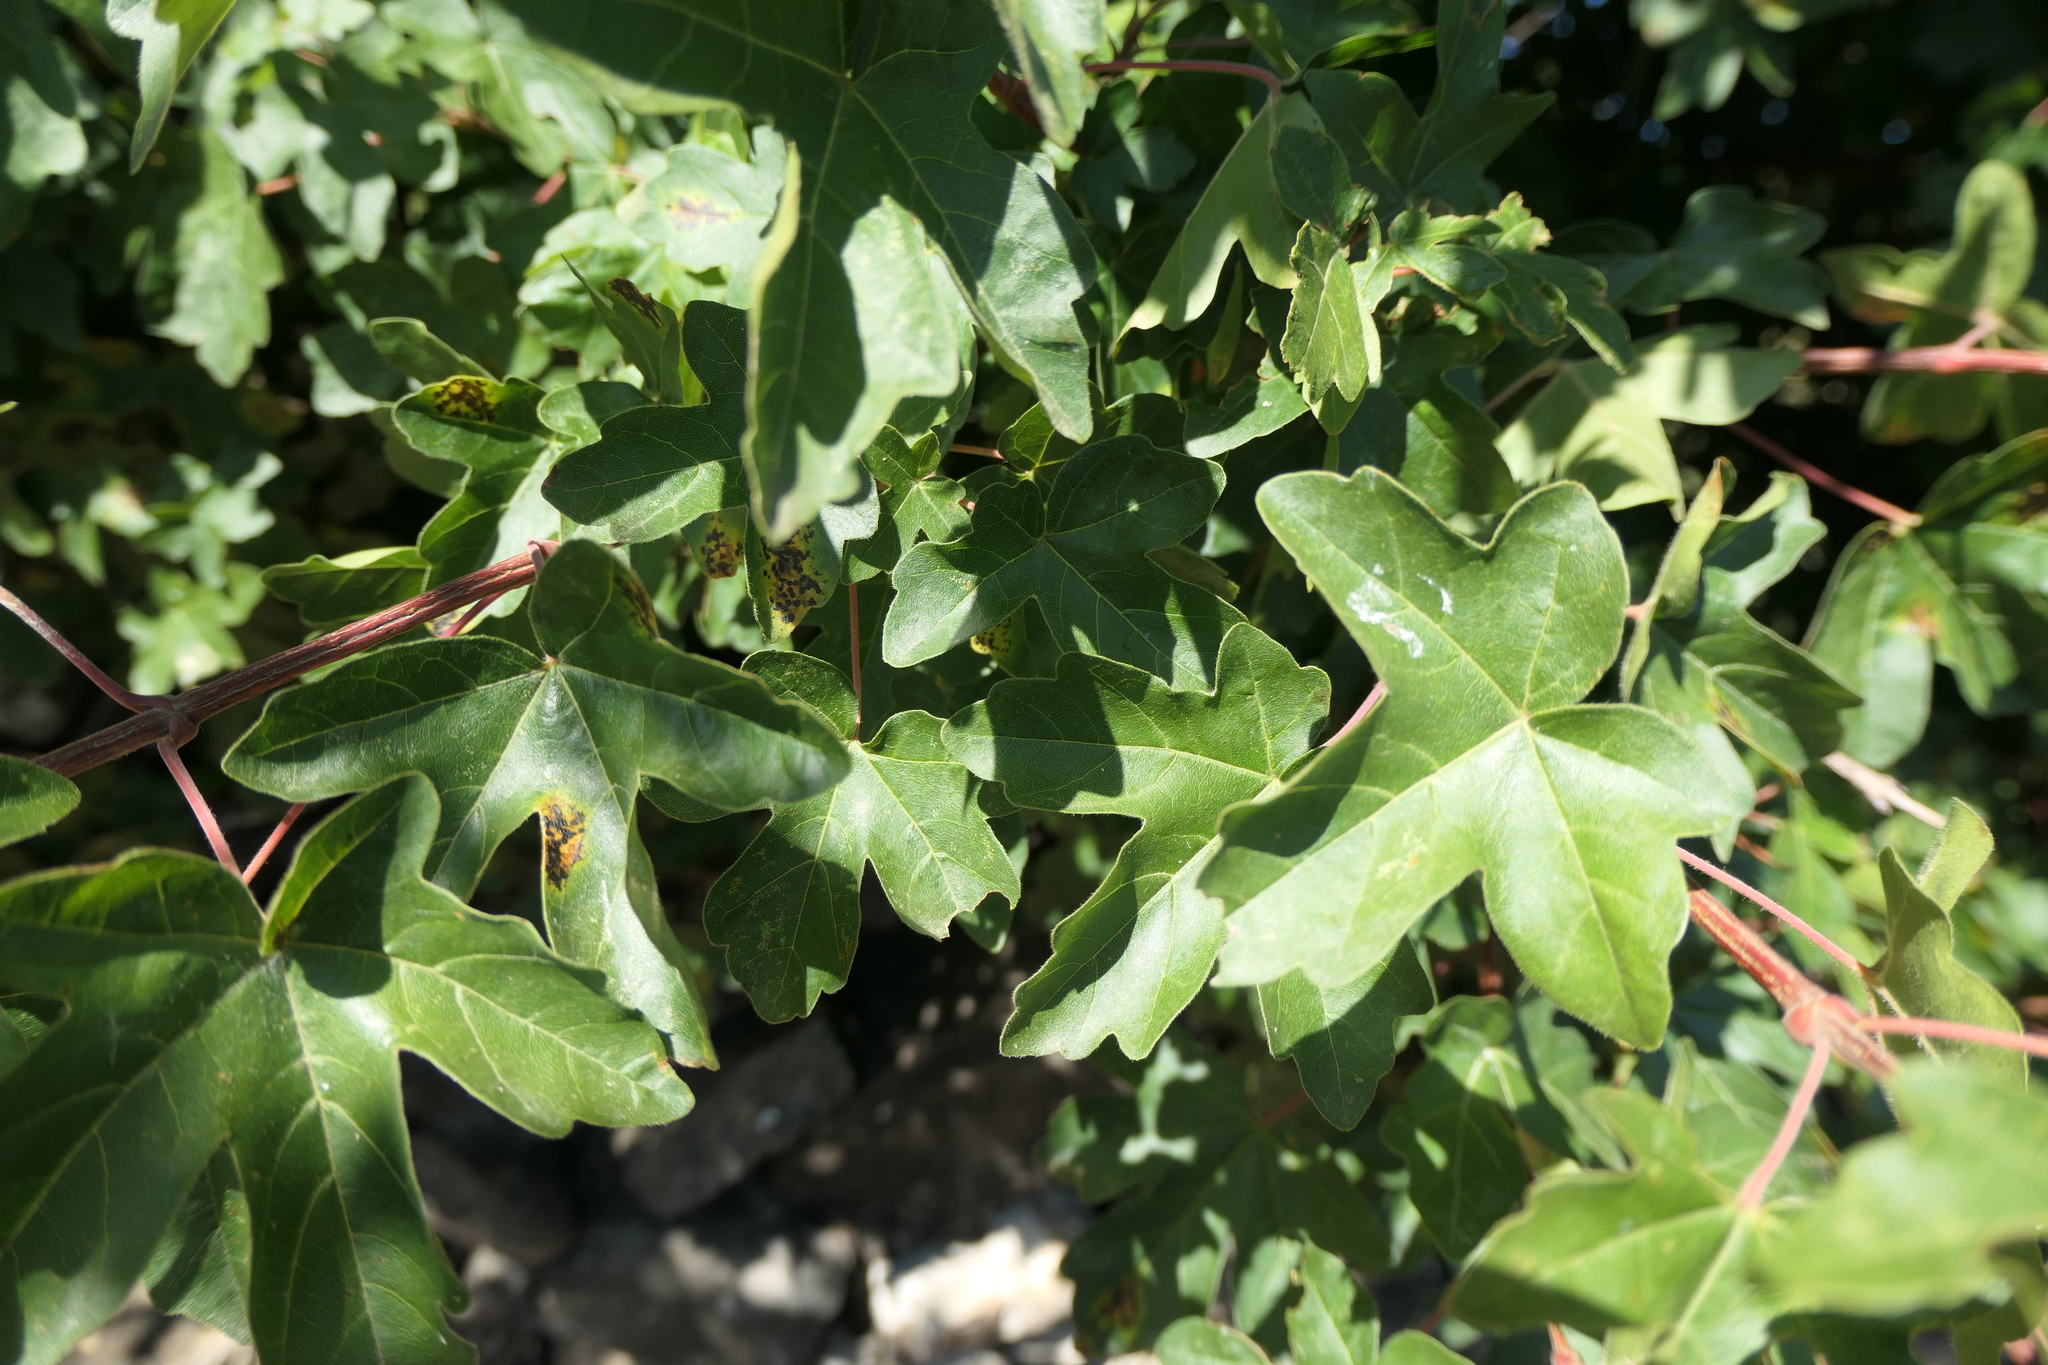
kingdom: Plantae
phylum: Tracheophyta
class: Magnoliopsida
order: Sapindales
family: Sapindaceae
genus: Acer
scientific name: Acer campestre
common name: Field maple
